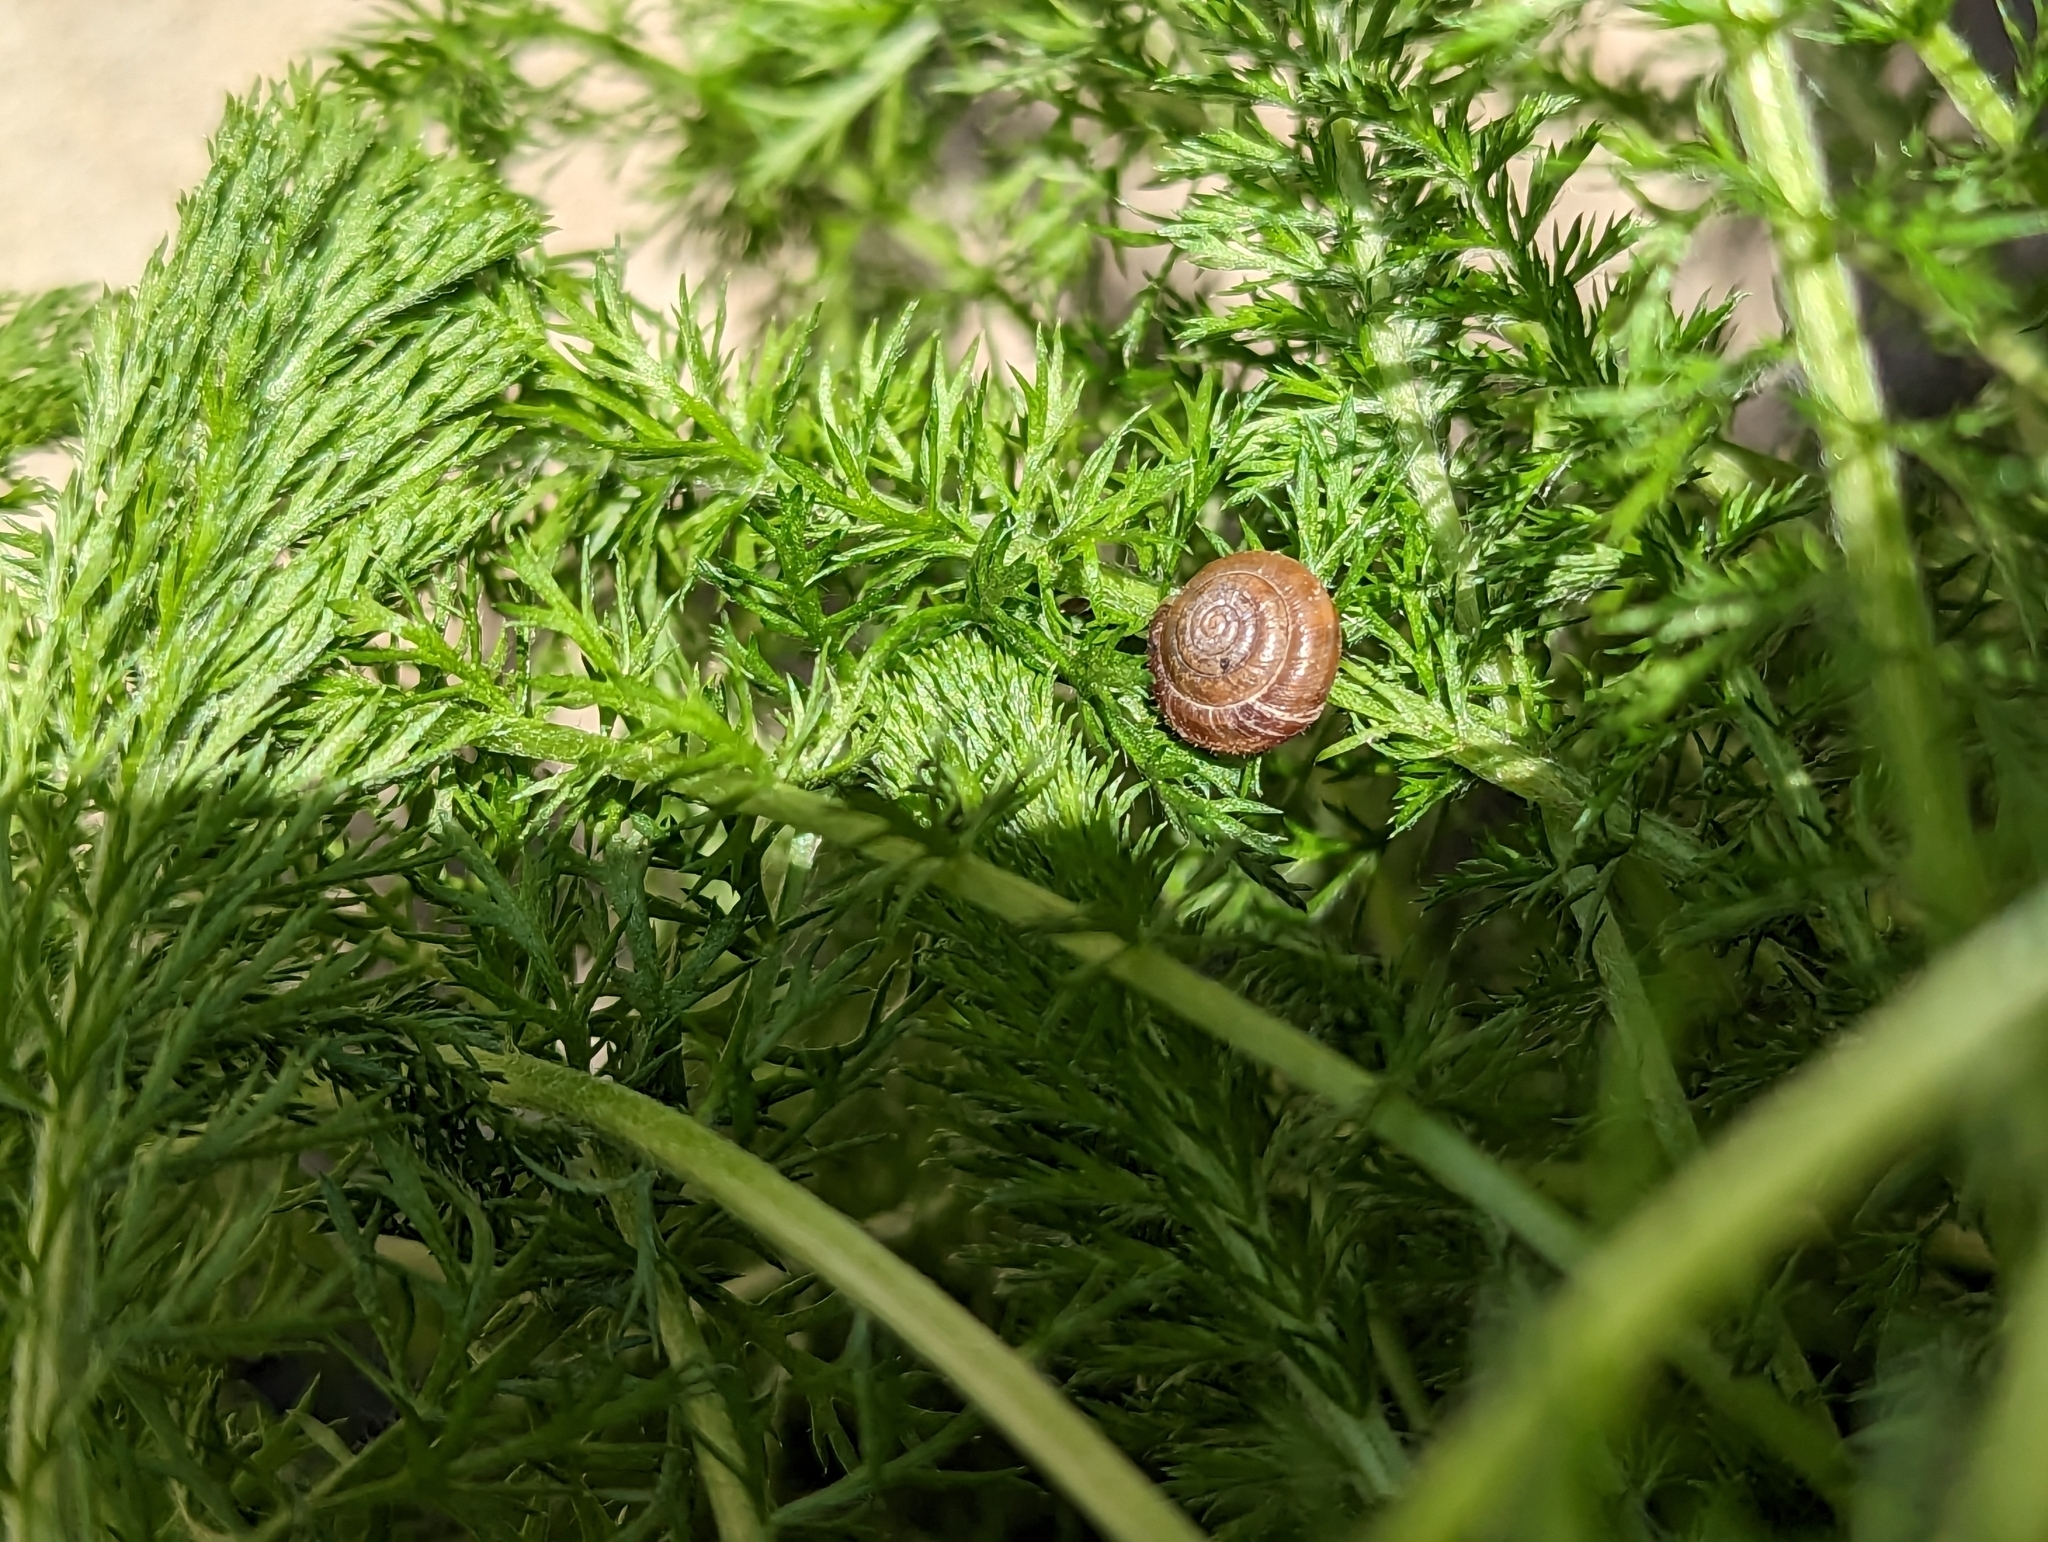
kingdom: Animalia
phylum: Mollusca
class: Gastropoda
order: Stylommatophora
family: Hygromiidae
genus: Trochulus
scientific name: Trochulus hispidus
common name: Hairy snail
